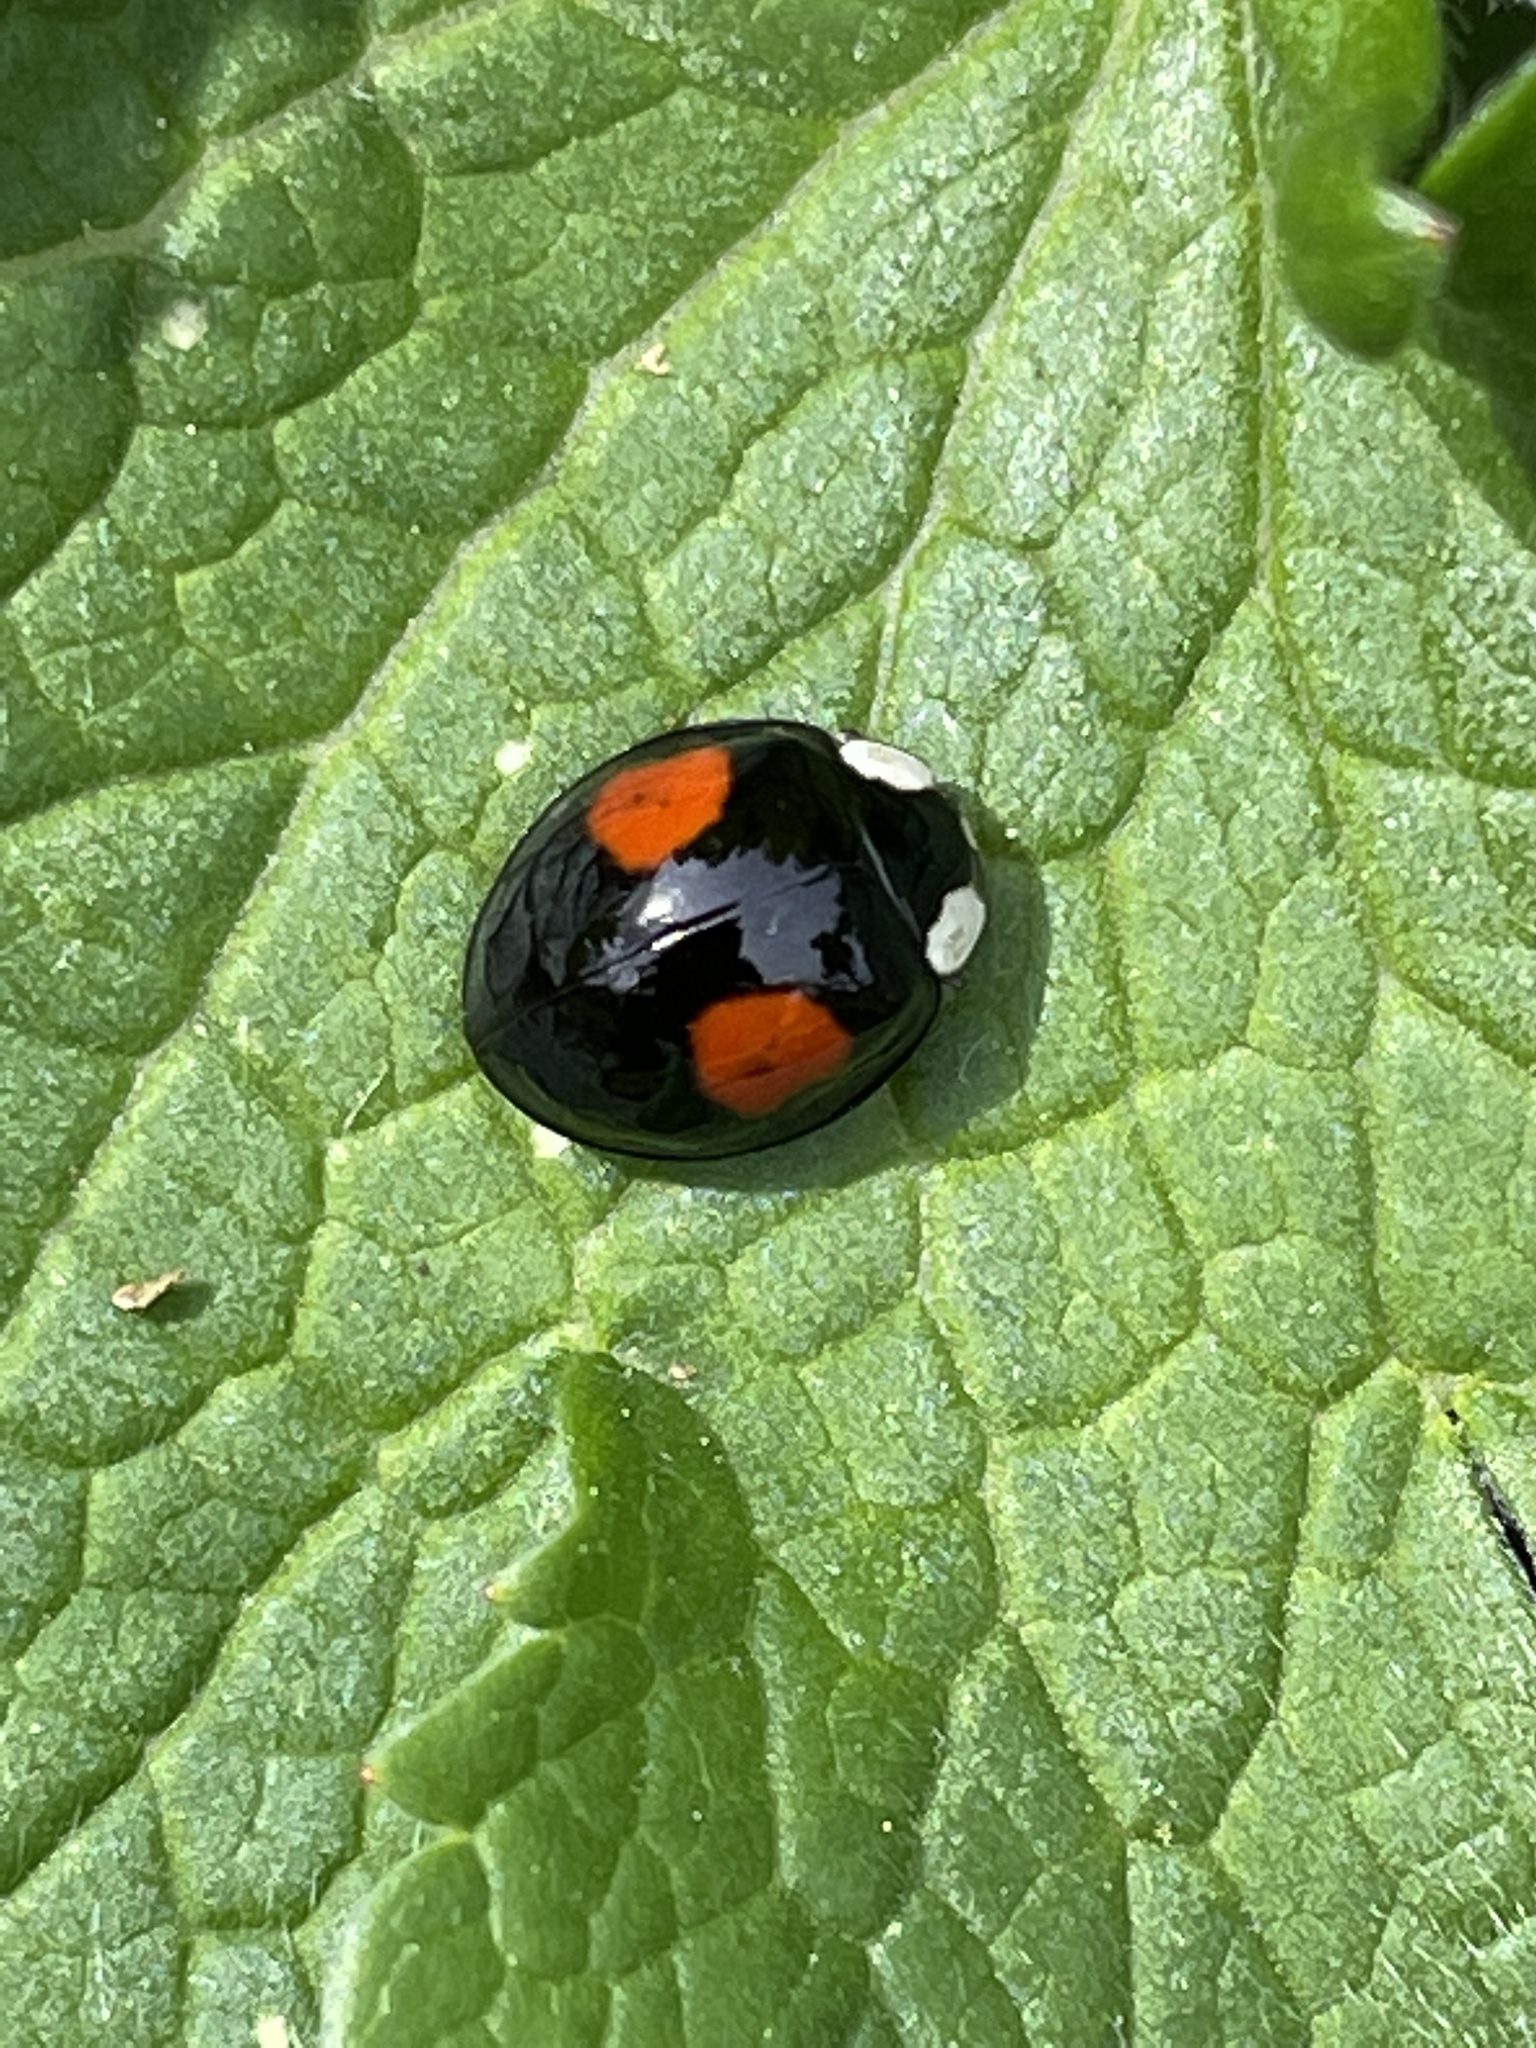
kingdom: Animalia
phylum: Arthropoda
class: Insecta
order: Coleoptera
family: Coccinellidae
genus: Harmonia
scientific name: Harmonia axyridis
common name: Harlequin ladybird
